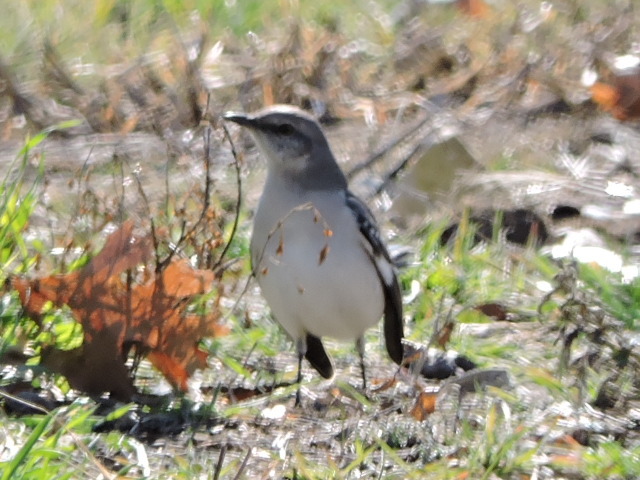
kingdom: Animalia
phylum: Chordata
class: Aves
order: Passeriformes
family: Mimidae
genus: Mimus
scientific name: Mimus polyglottos
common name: Northern mockingbird
